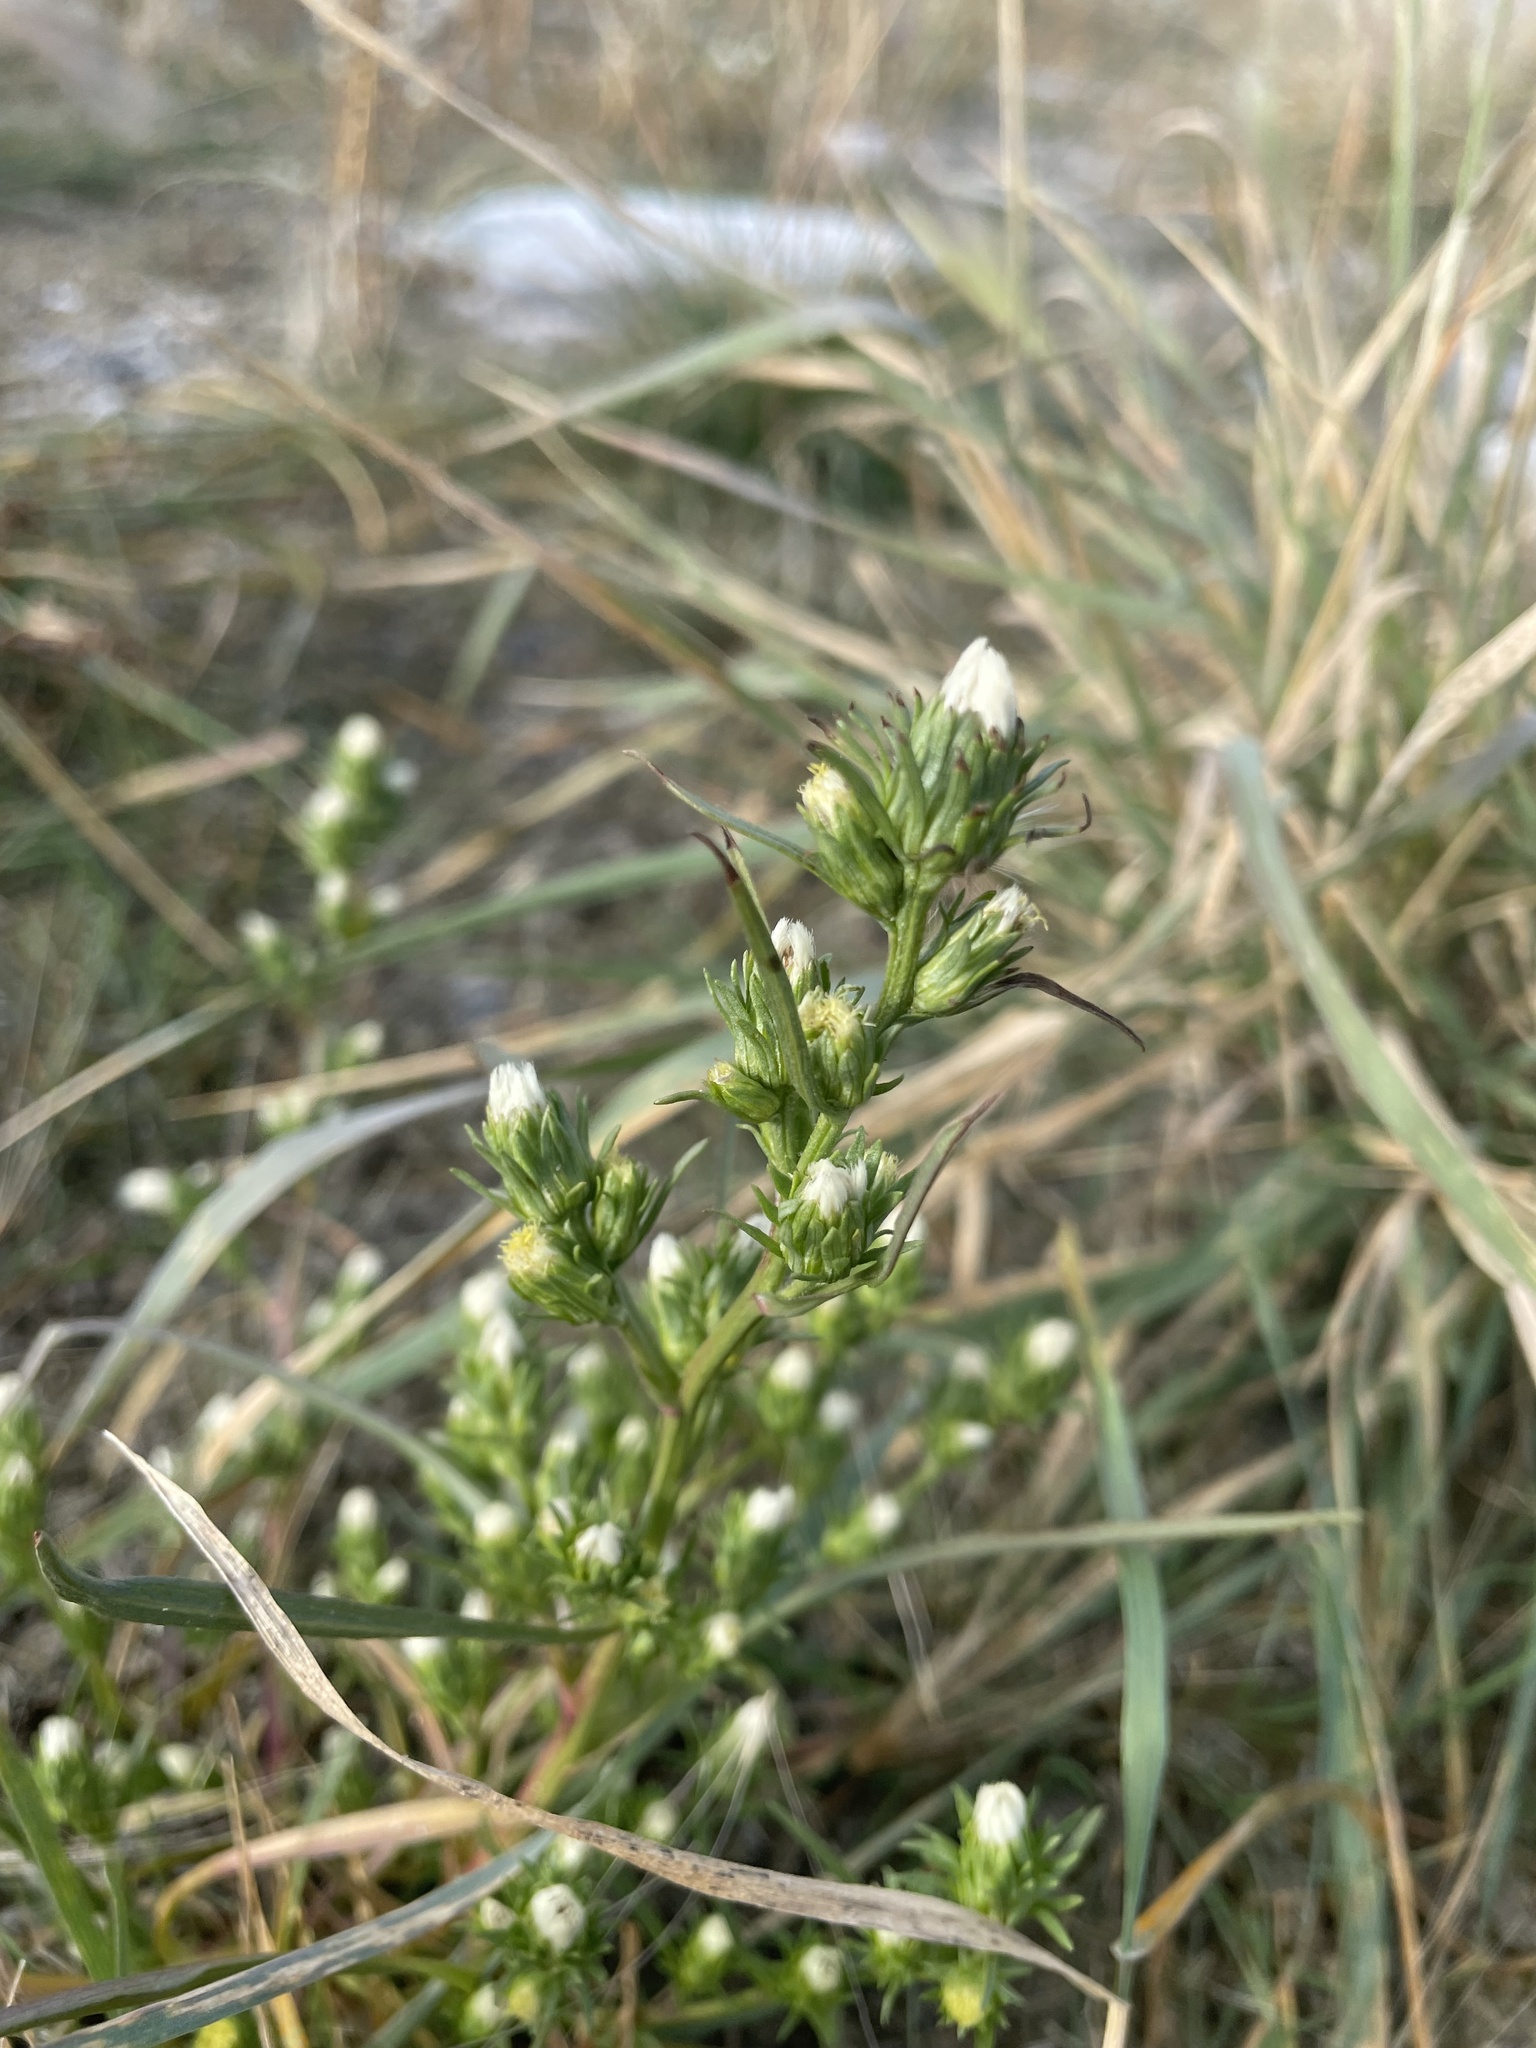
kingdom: Plantae
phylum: Tracheophyta
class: Magnoliopsida
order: Asterales
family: Asteraceae
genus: Symphyotrichum
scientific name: Symphyotrichum ciliatum
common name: Rayless annual aster
